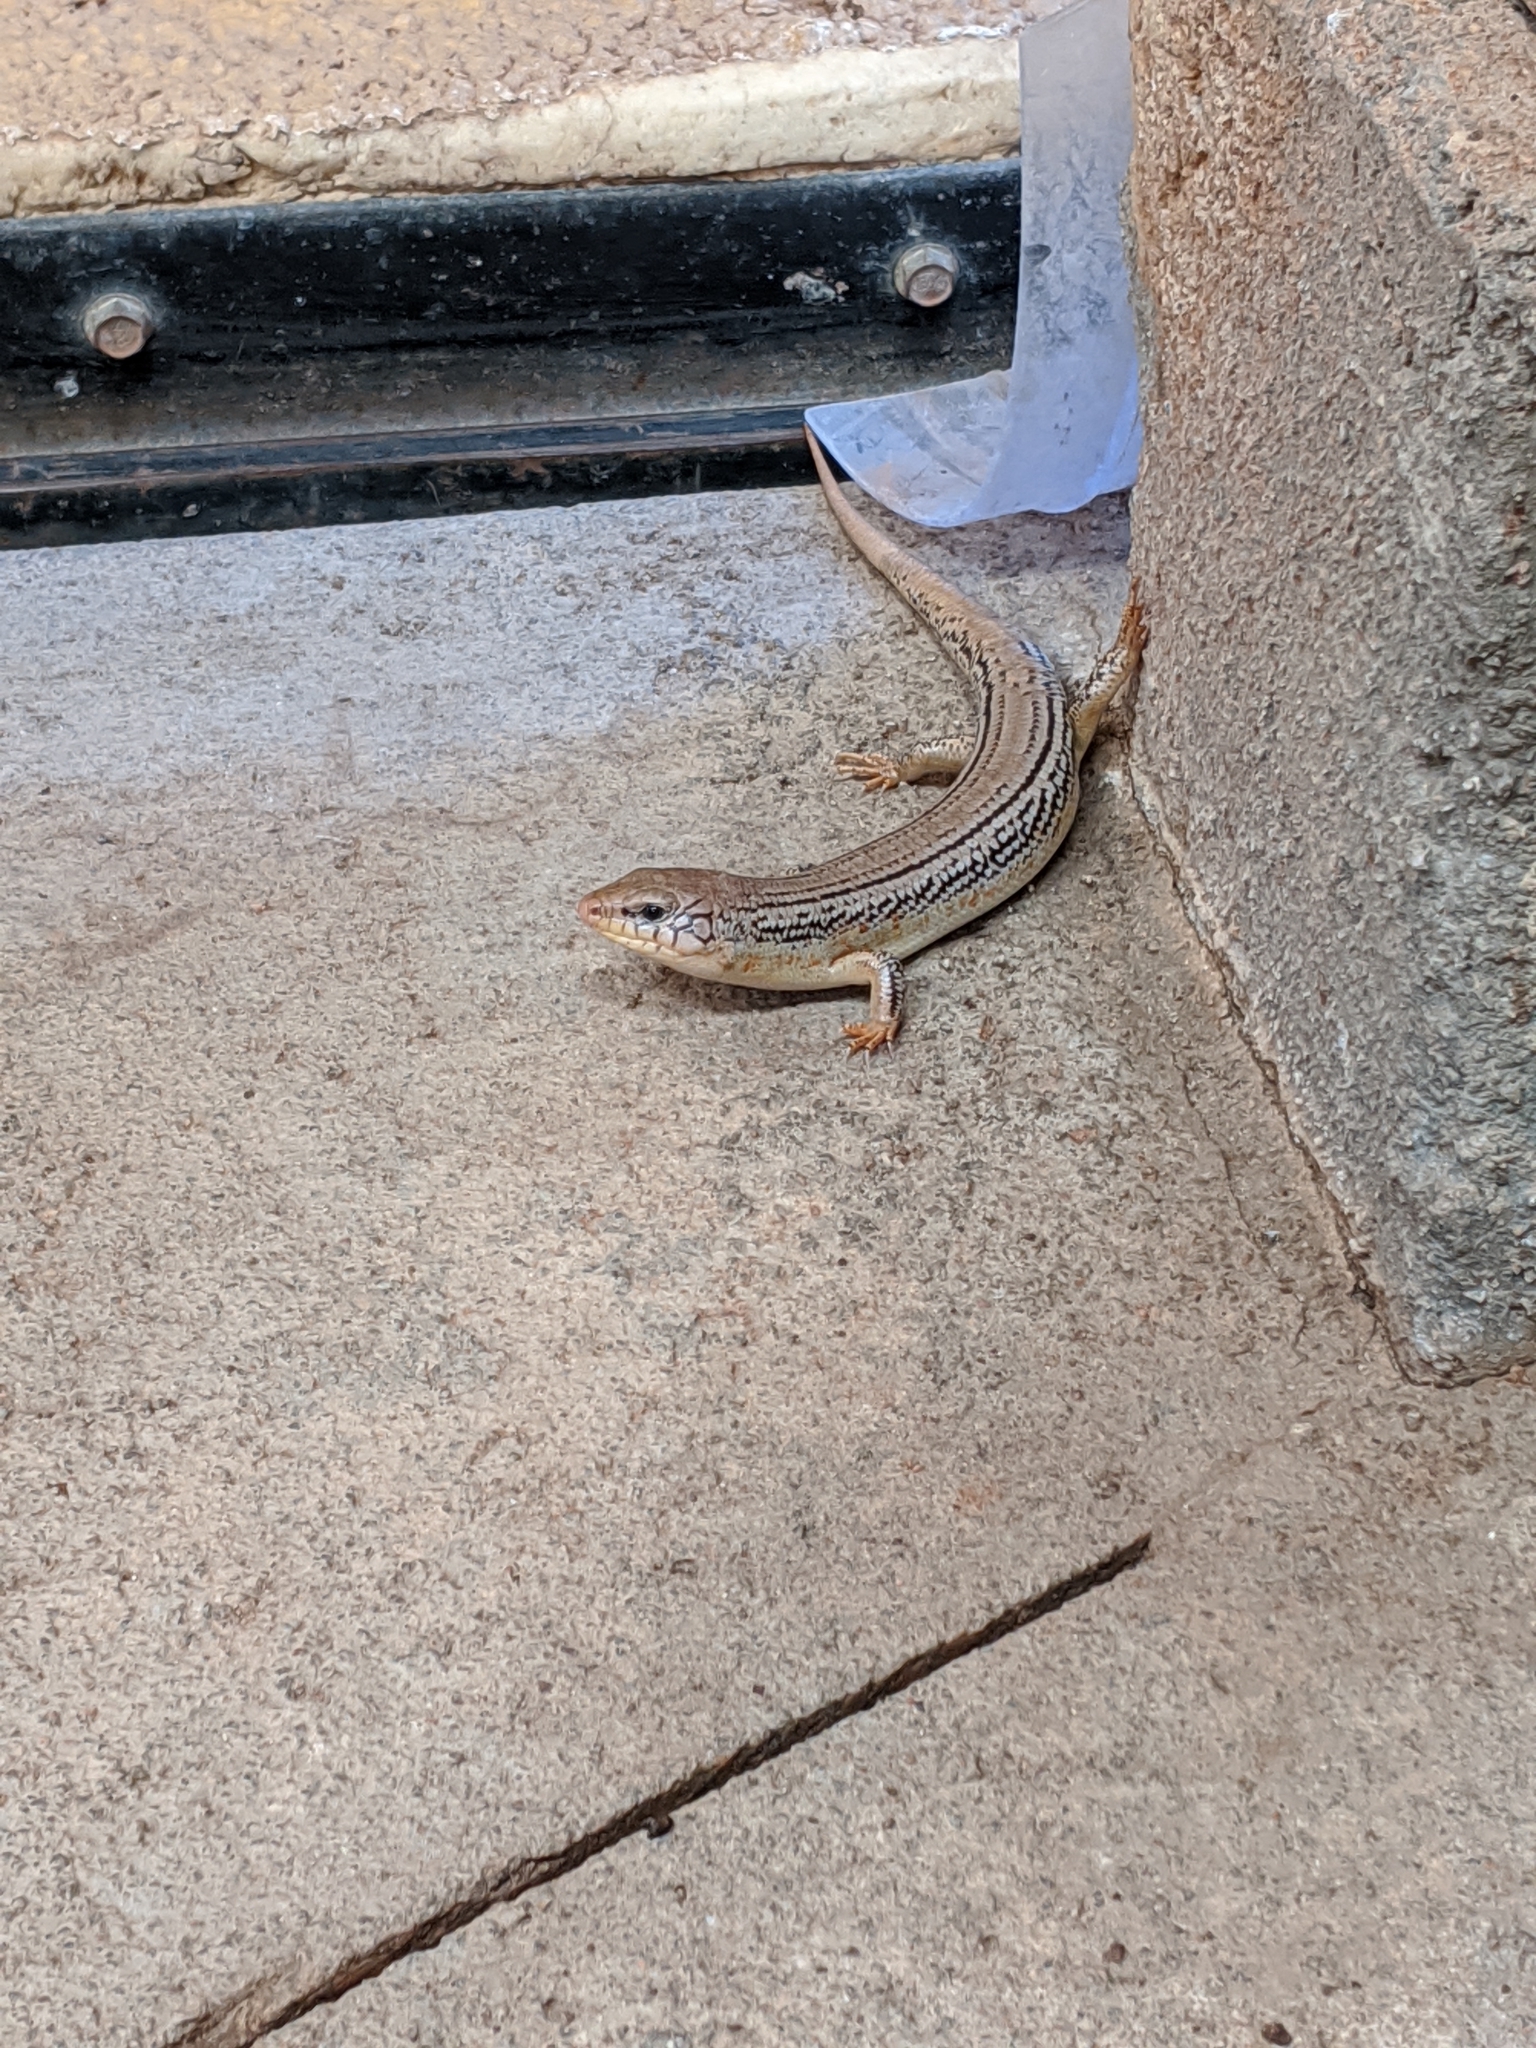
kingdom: Animalia
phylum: Chordata
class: Squamata
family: Scincidae
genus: Plestiodon
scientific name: Plestiodon obsoletus
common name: Great plains skink
